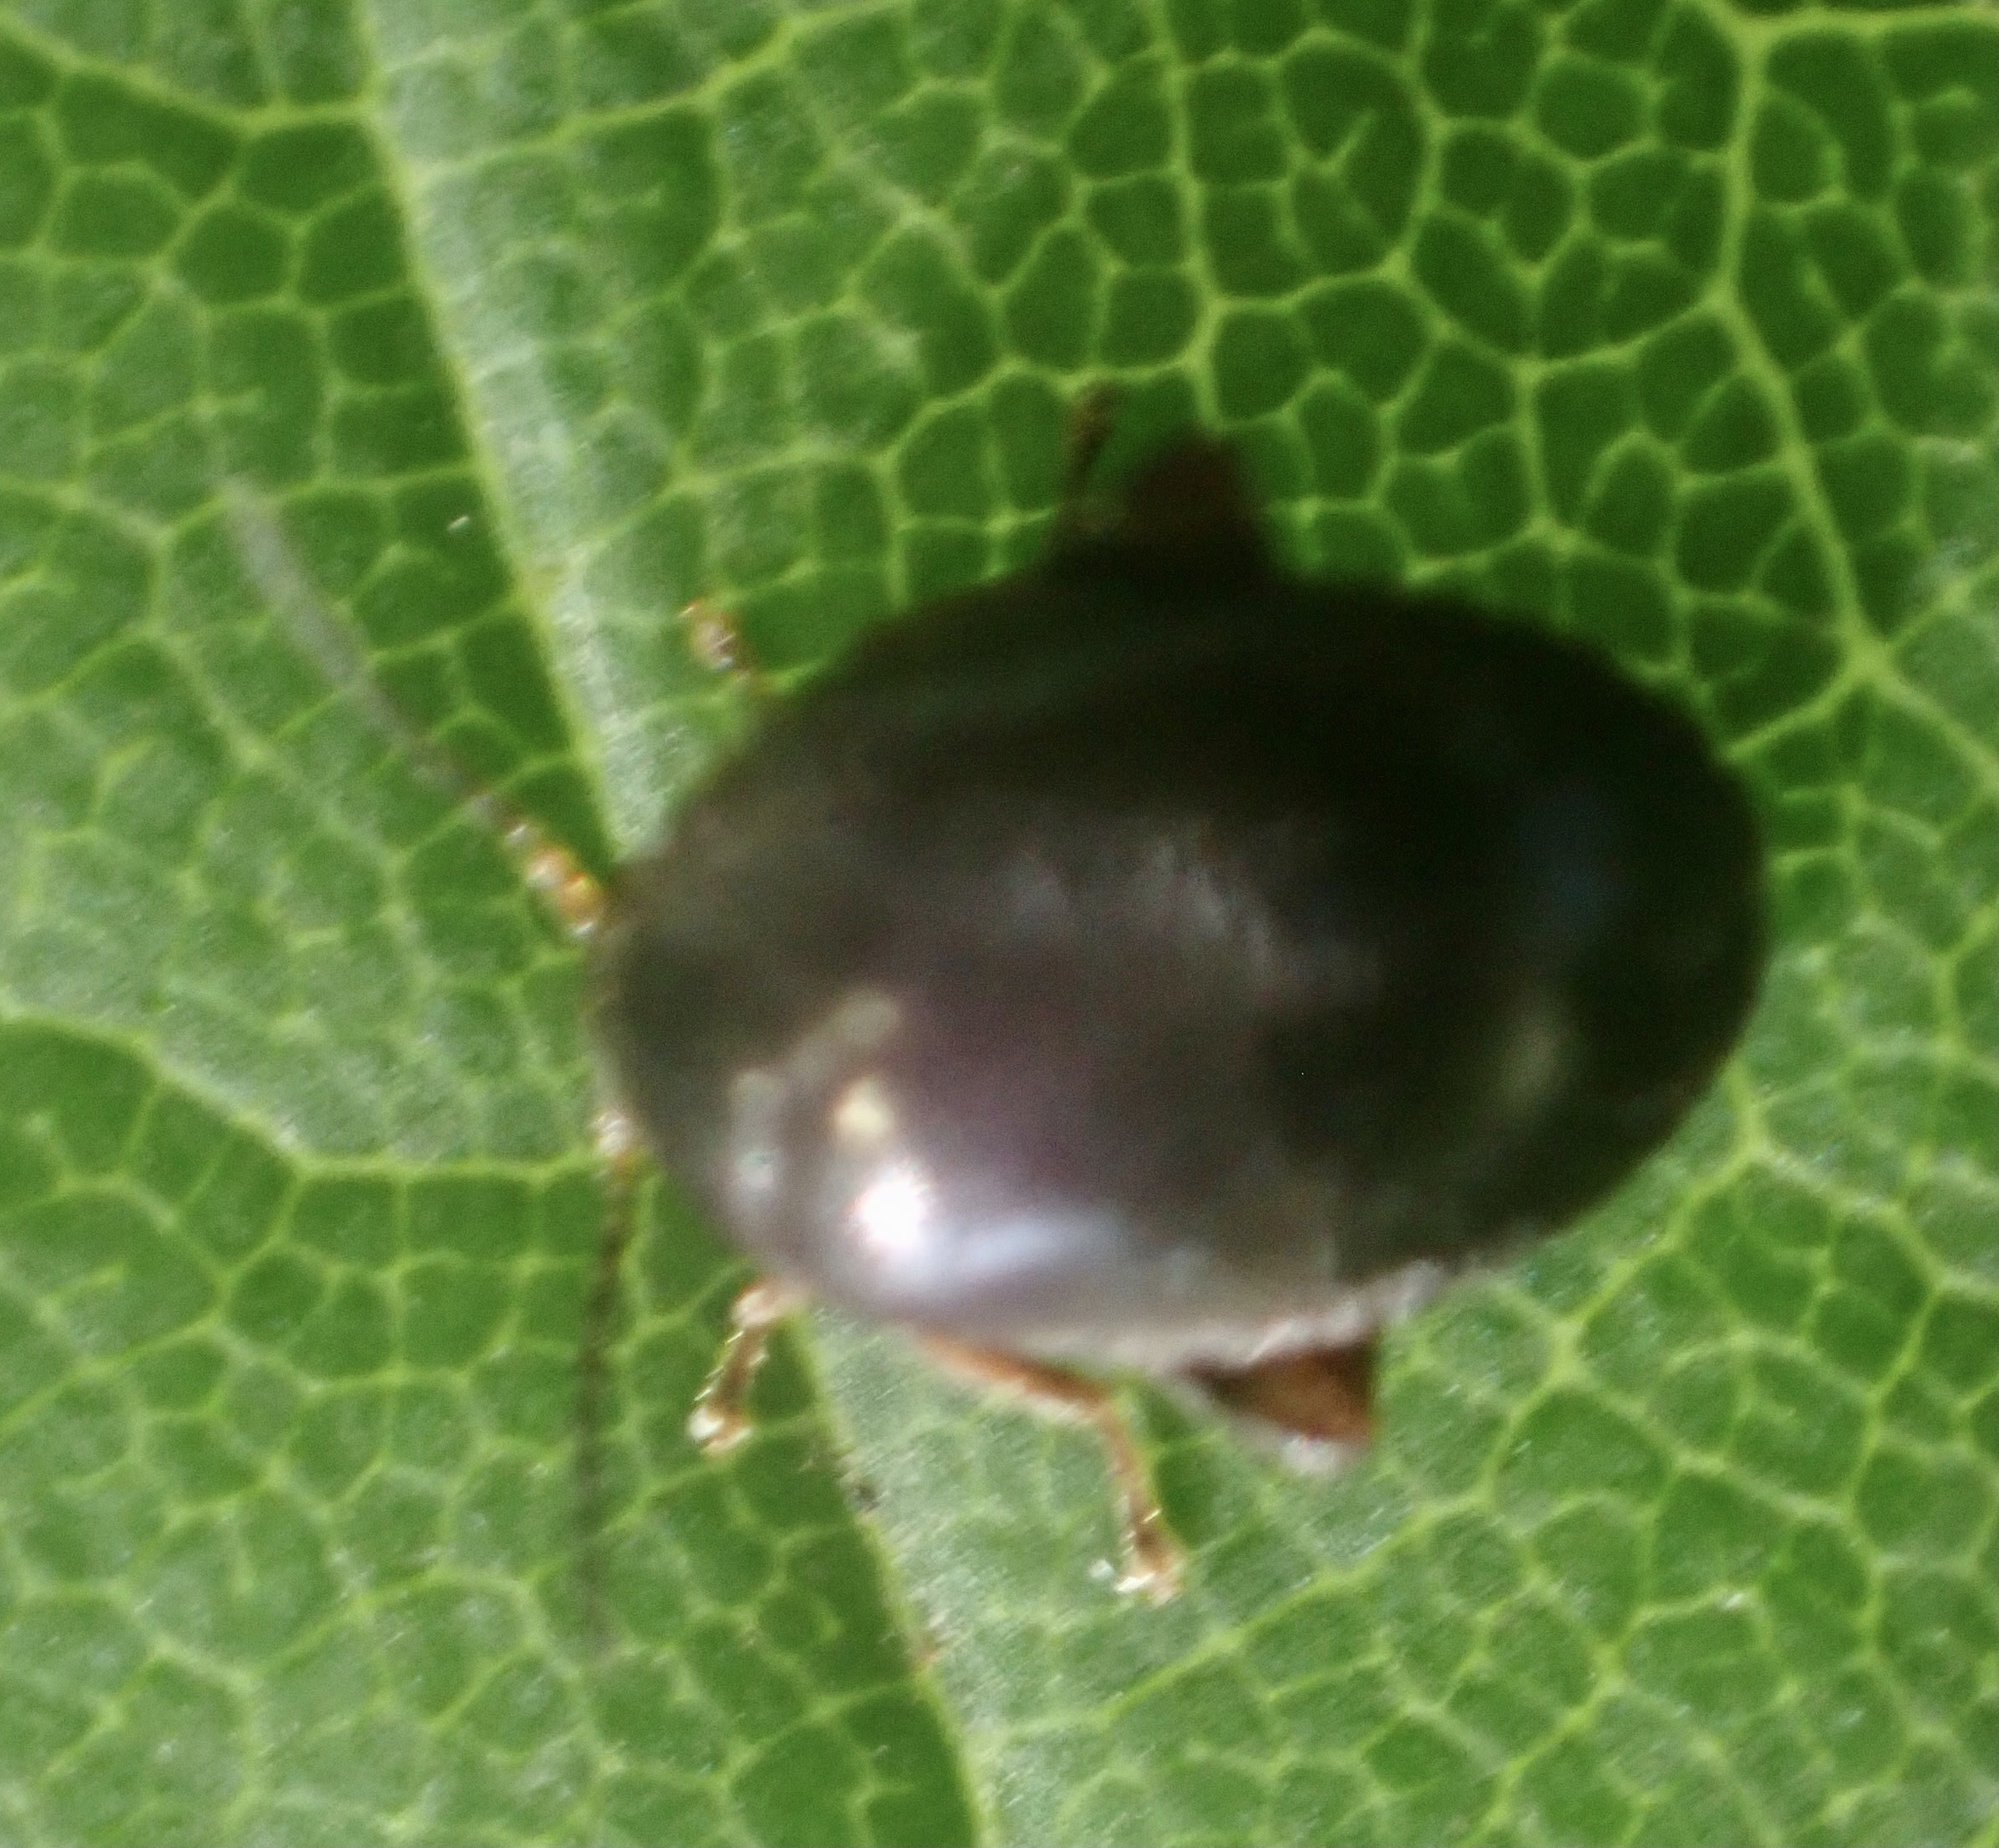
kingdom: Animalia
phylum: Arthropoda
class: Insecta
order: Coleoptera
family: Scirtidae
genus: Scirtes
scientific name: Scirtes hemisphaericus
